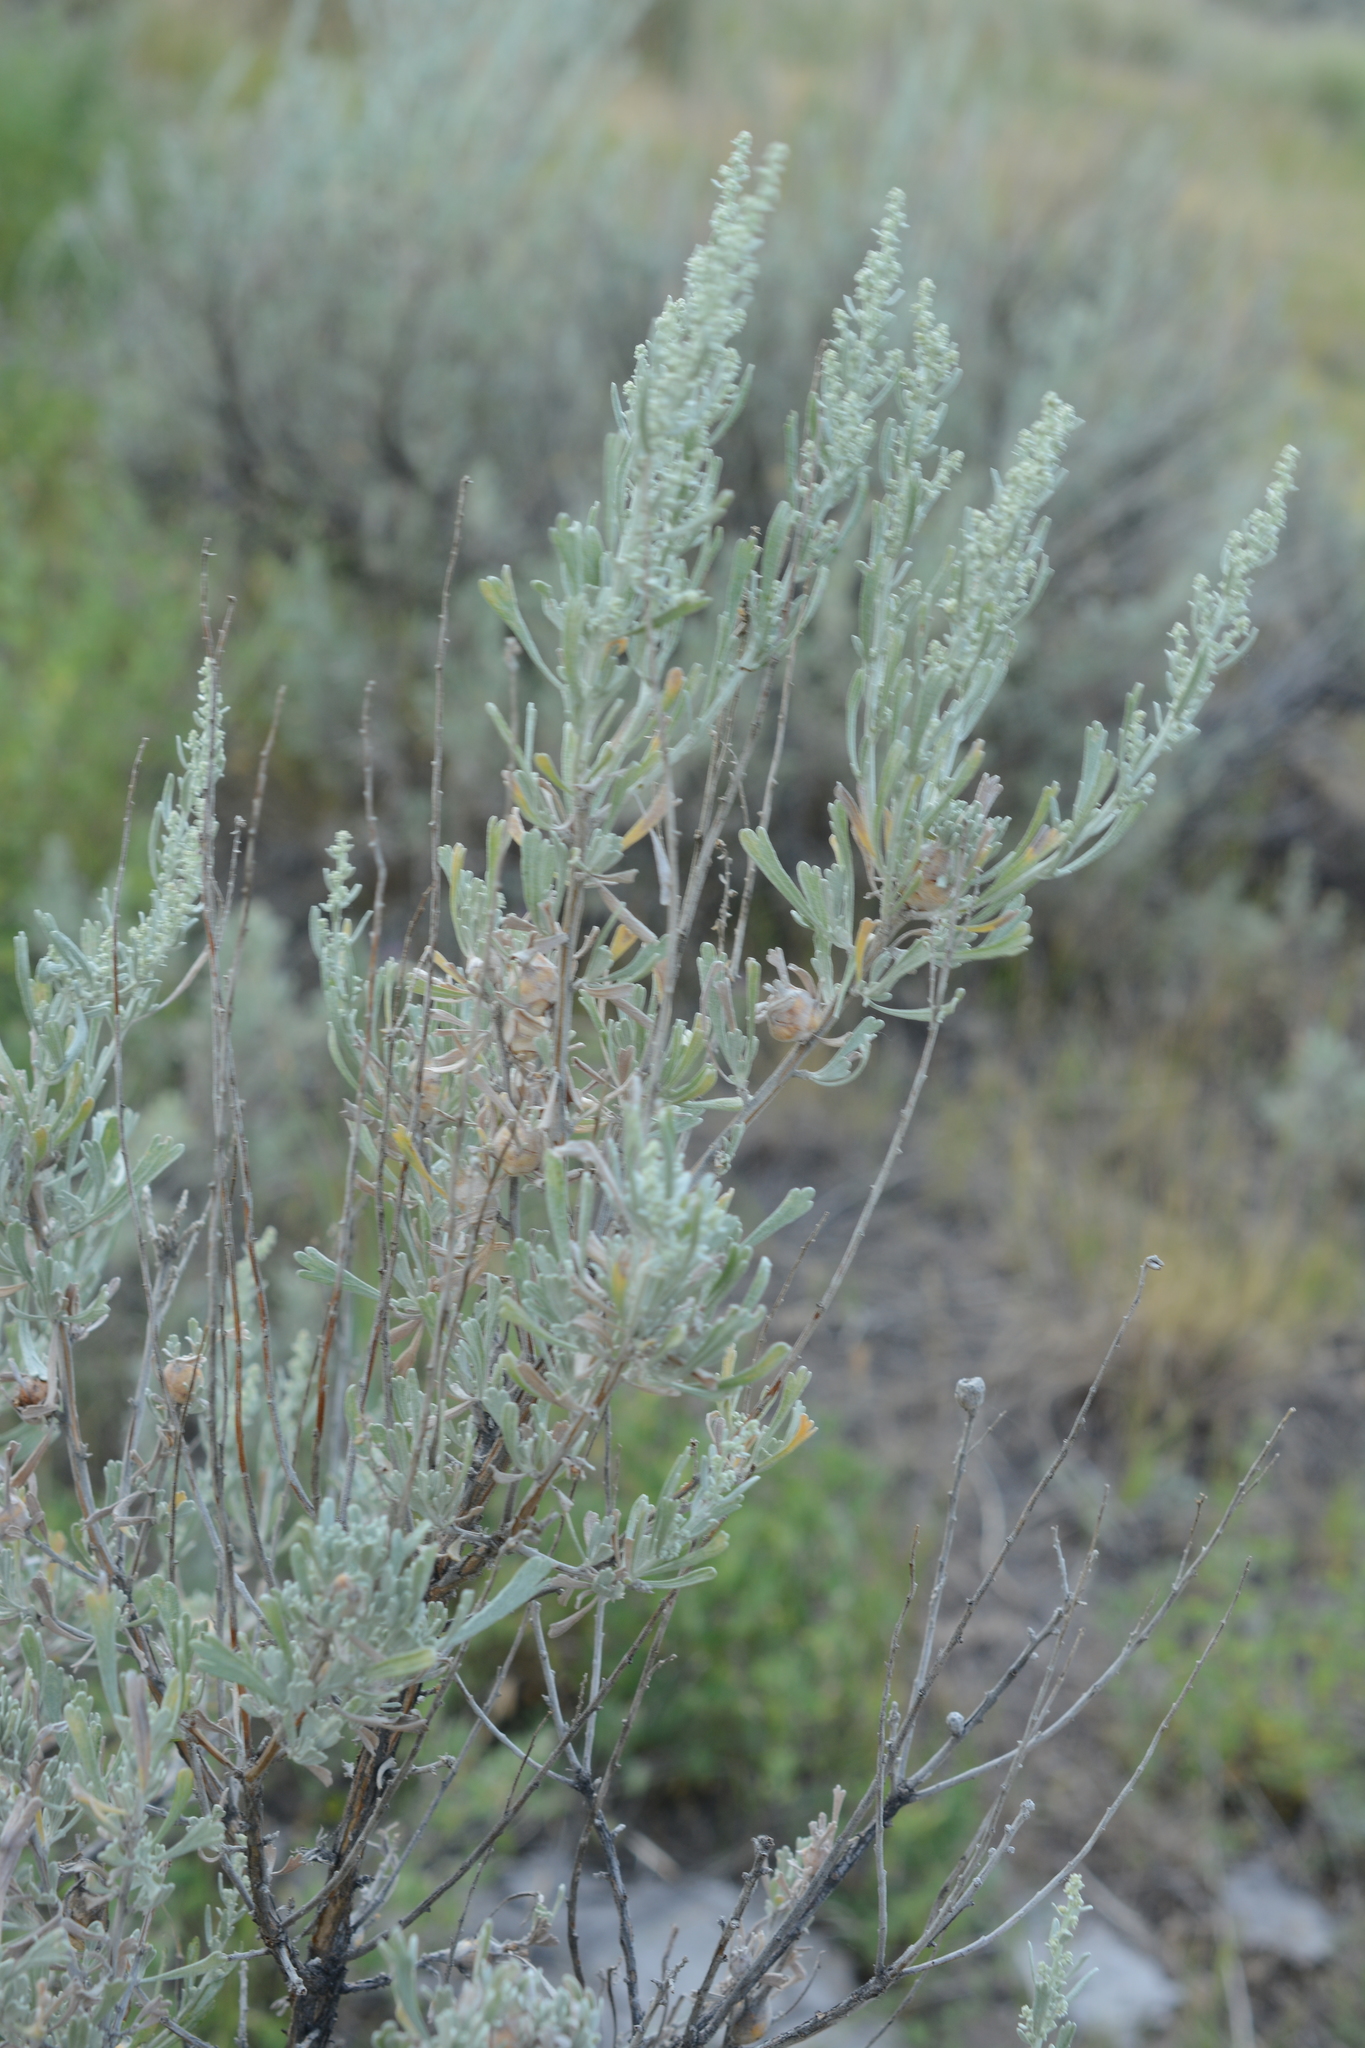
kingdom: Plantae
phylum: Tracheophyta
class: Magnoliopsida
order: Asterales
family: Asteraceae
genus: Artemisia
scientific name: Artemisia tridentata
